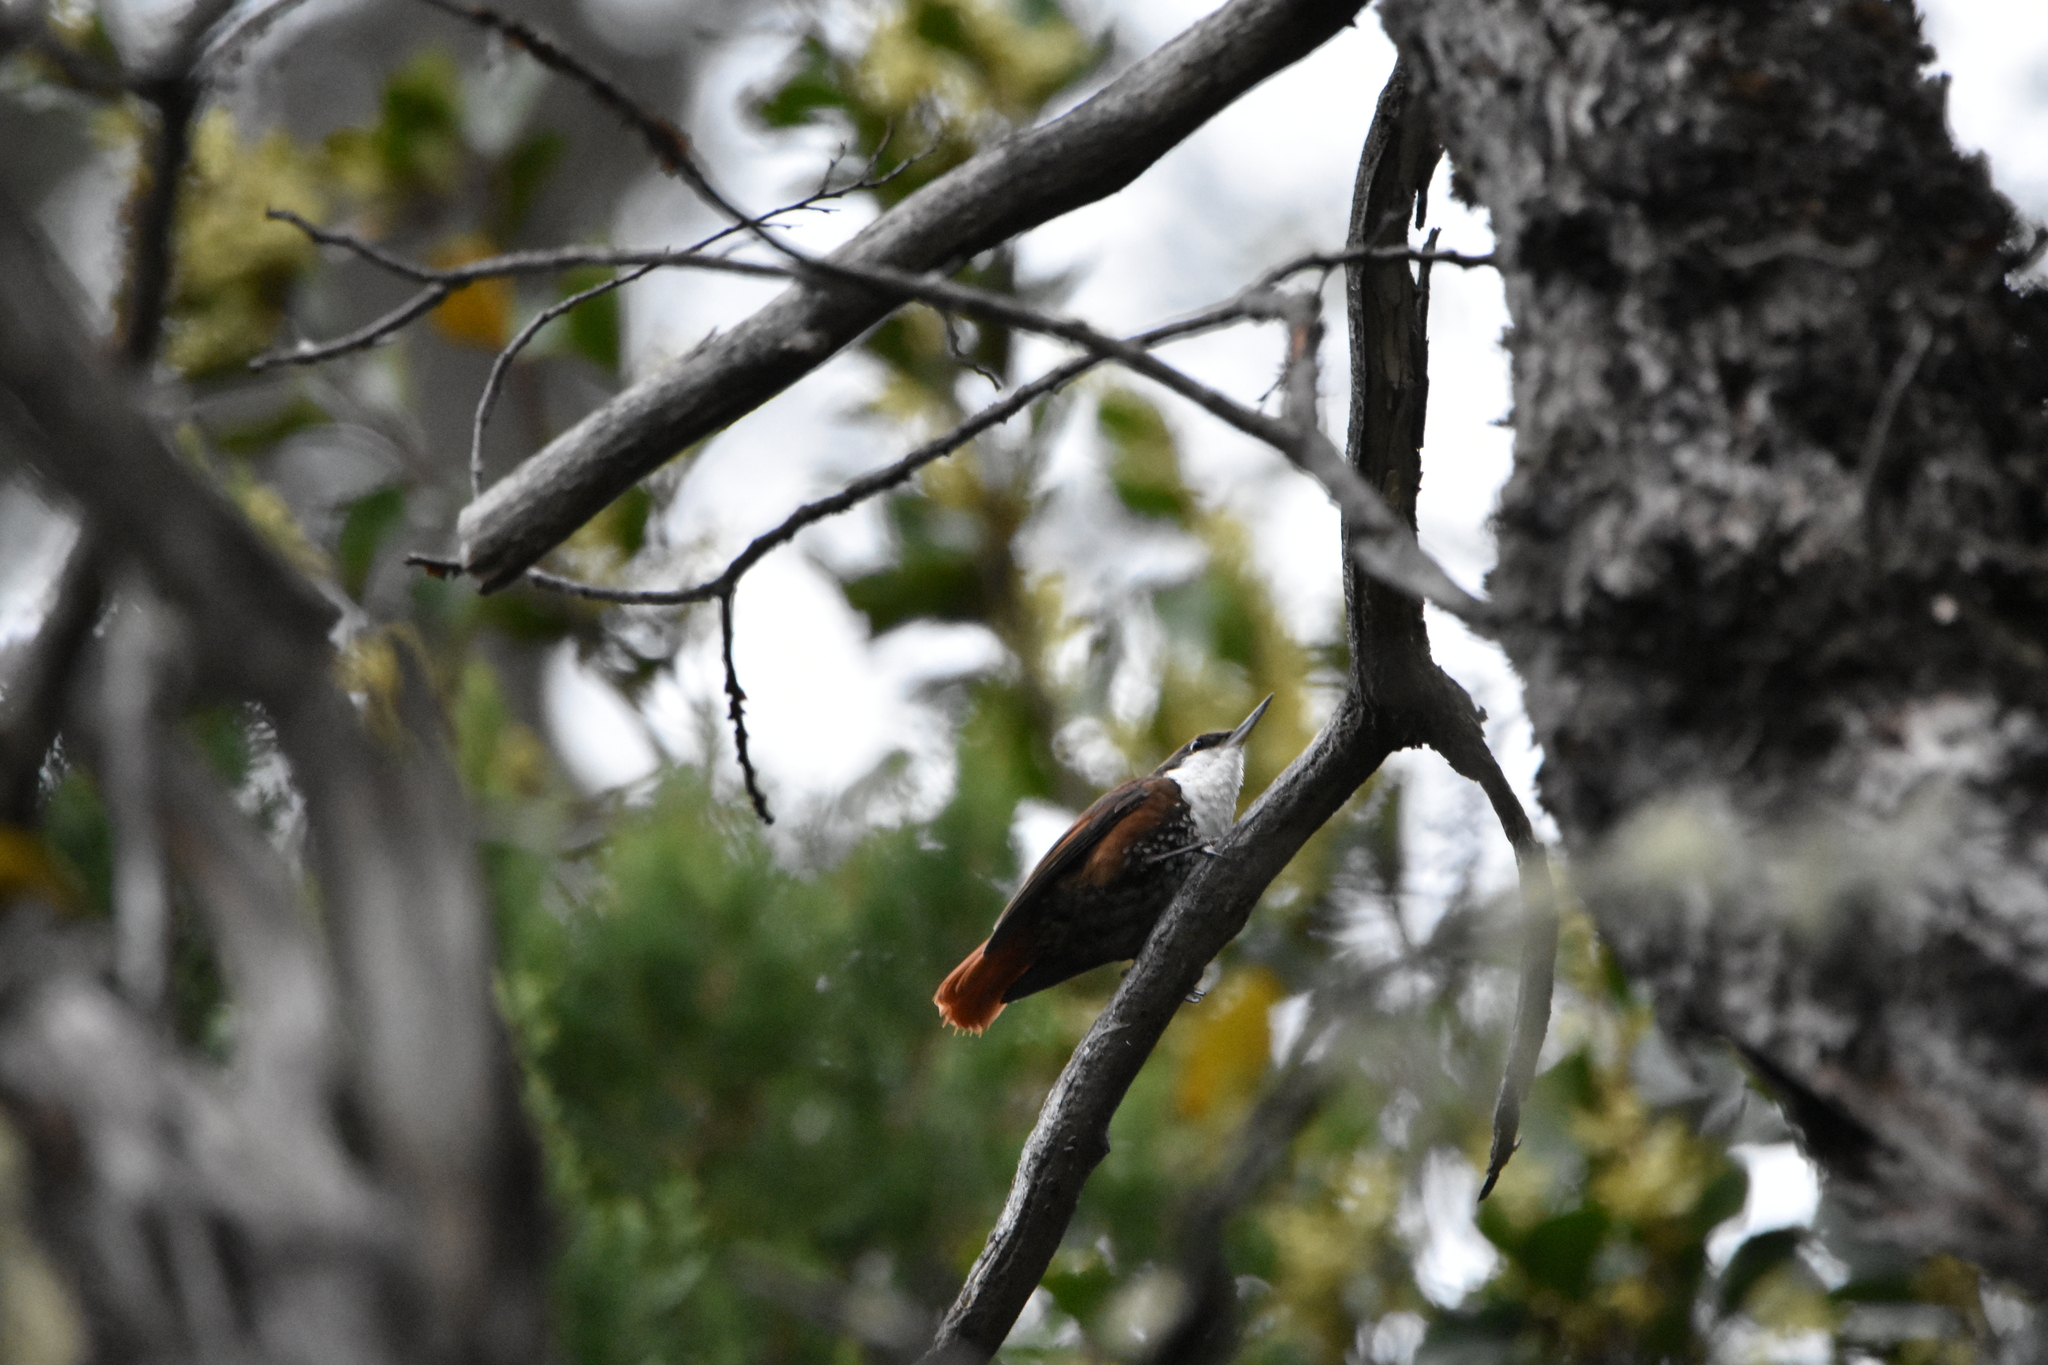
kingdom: Animalia
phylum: Chordata
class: Aves
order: Passeriformes
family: Furnariidae
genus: Pygarrhichas
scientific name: Pygarrhichas albogularis
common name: White-throated treerunner
